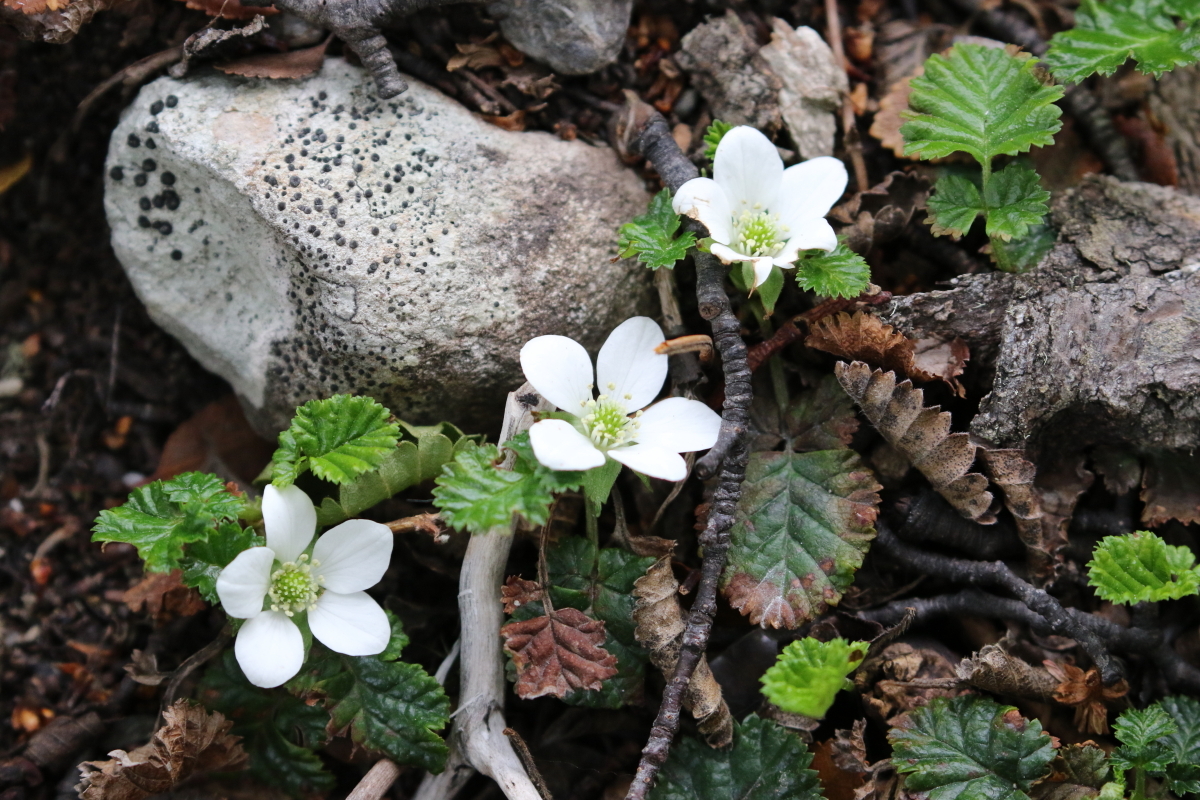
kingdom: Plantae
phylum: Tracheophyta
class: Magnoliopsida
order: Rosales
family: Rosaceae
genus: Rubus
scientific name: Rubus geoides
